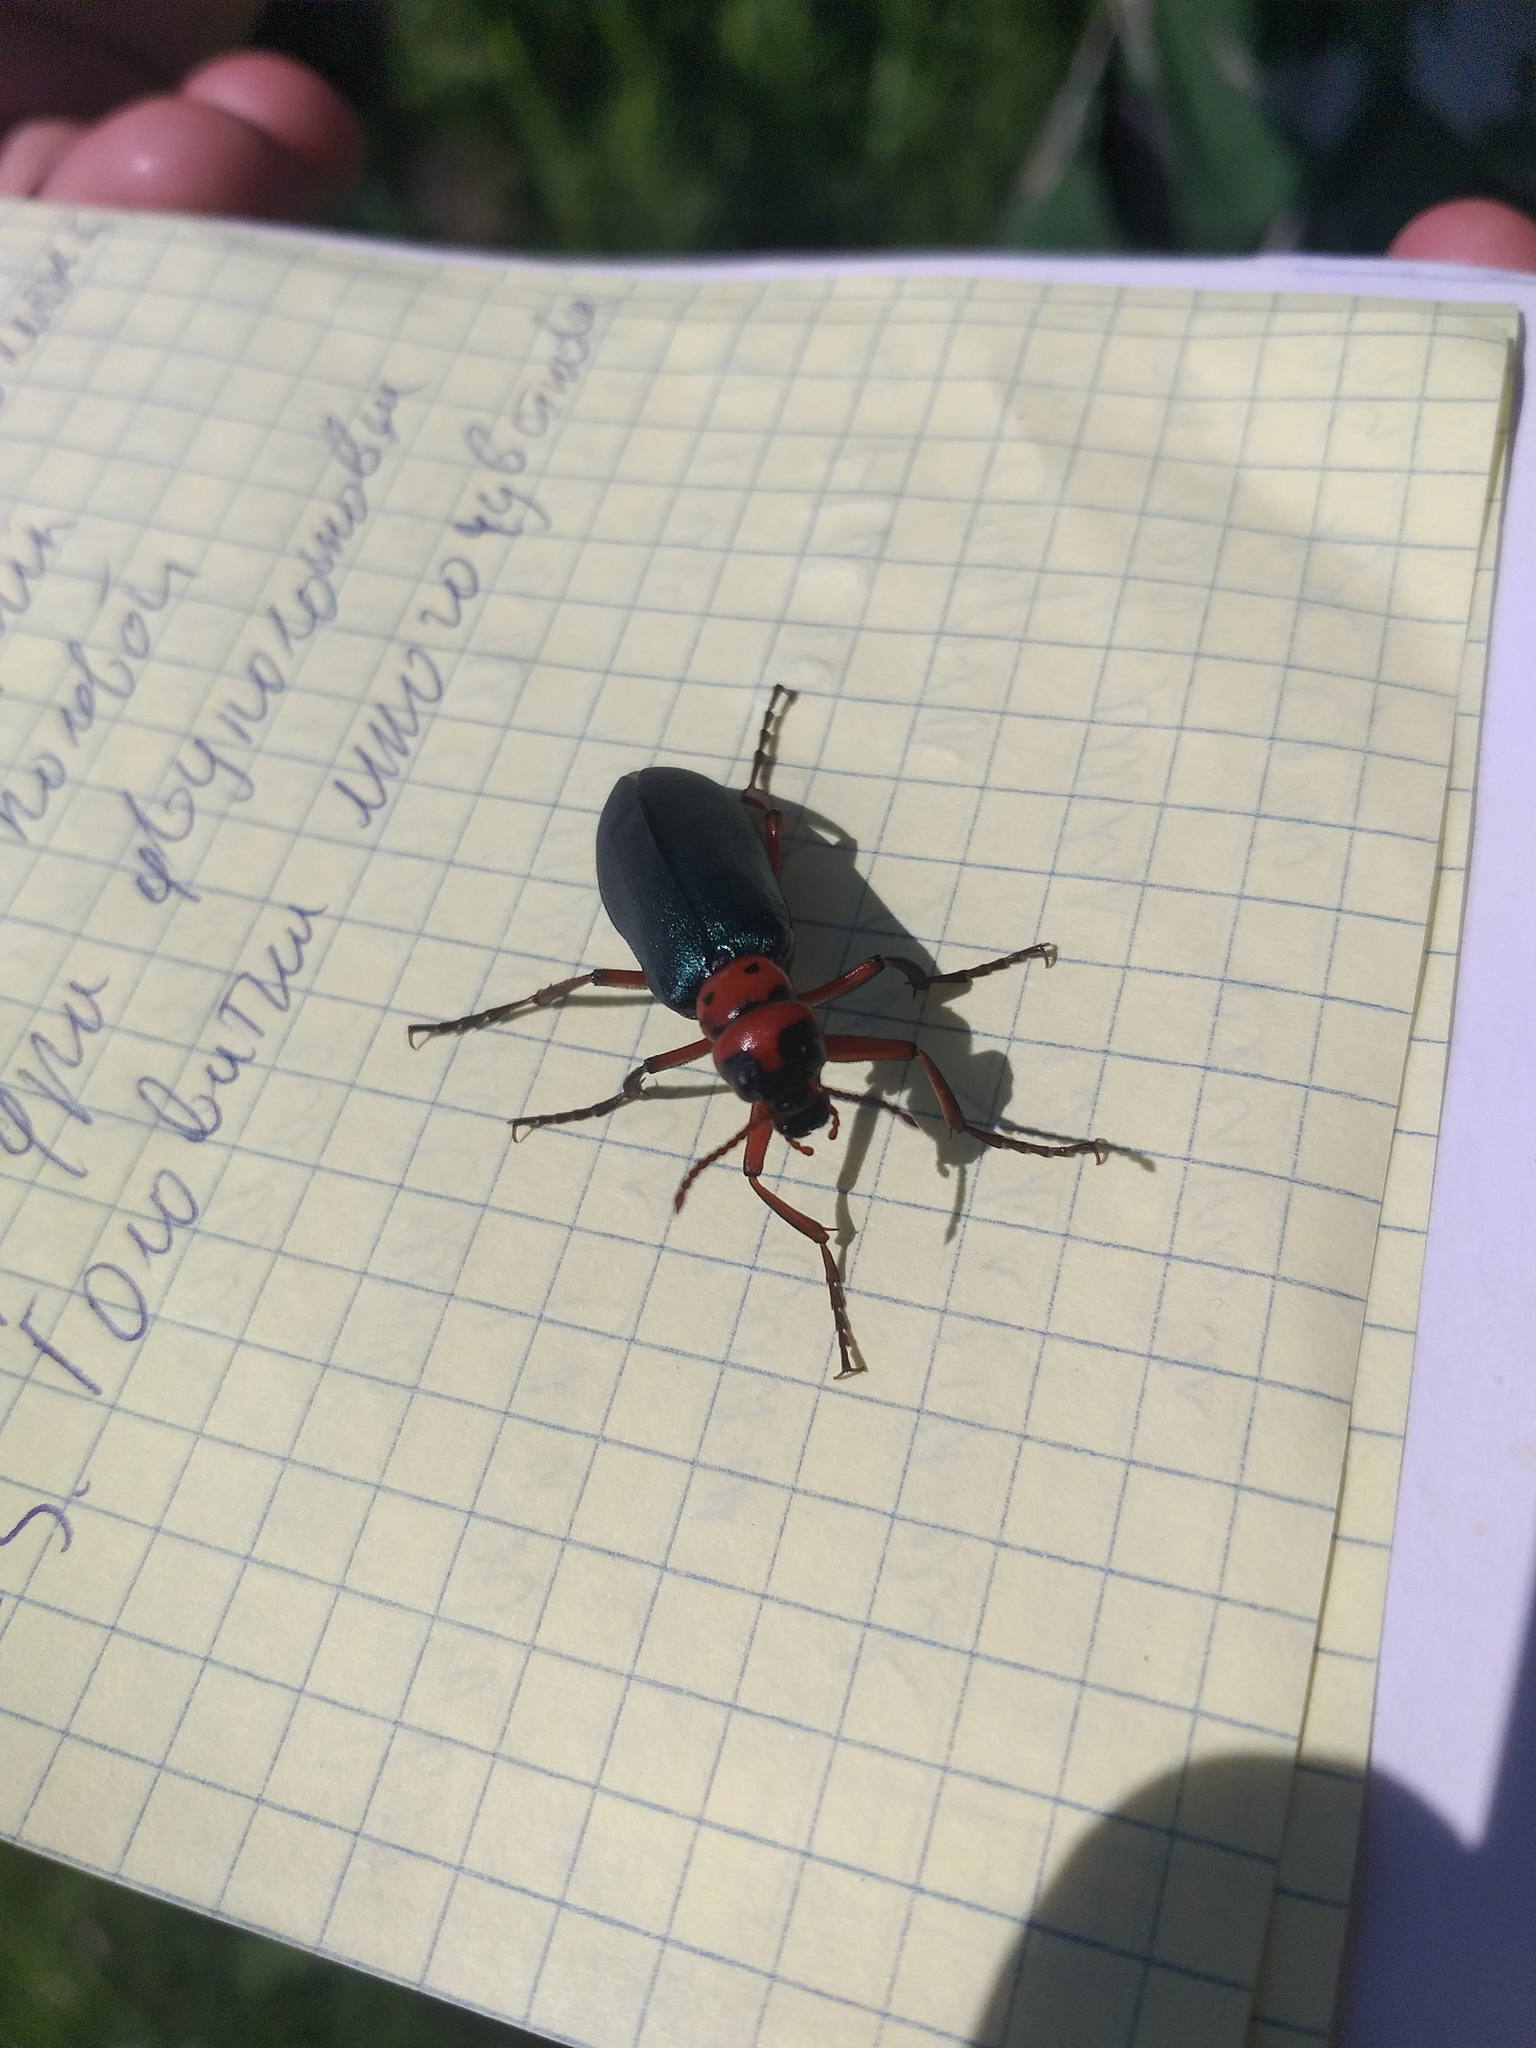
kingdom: Animalia
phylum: Arthropoda
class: Insecta
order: Coleoptera
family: Meloidae
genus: Muzimes
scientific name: Muzimes collaris
